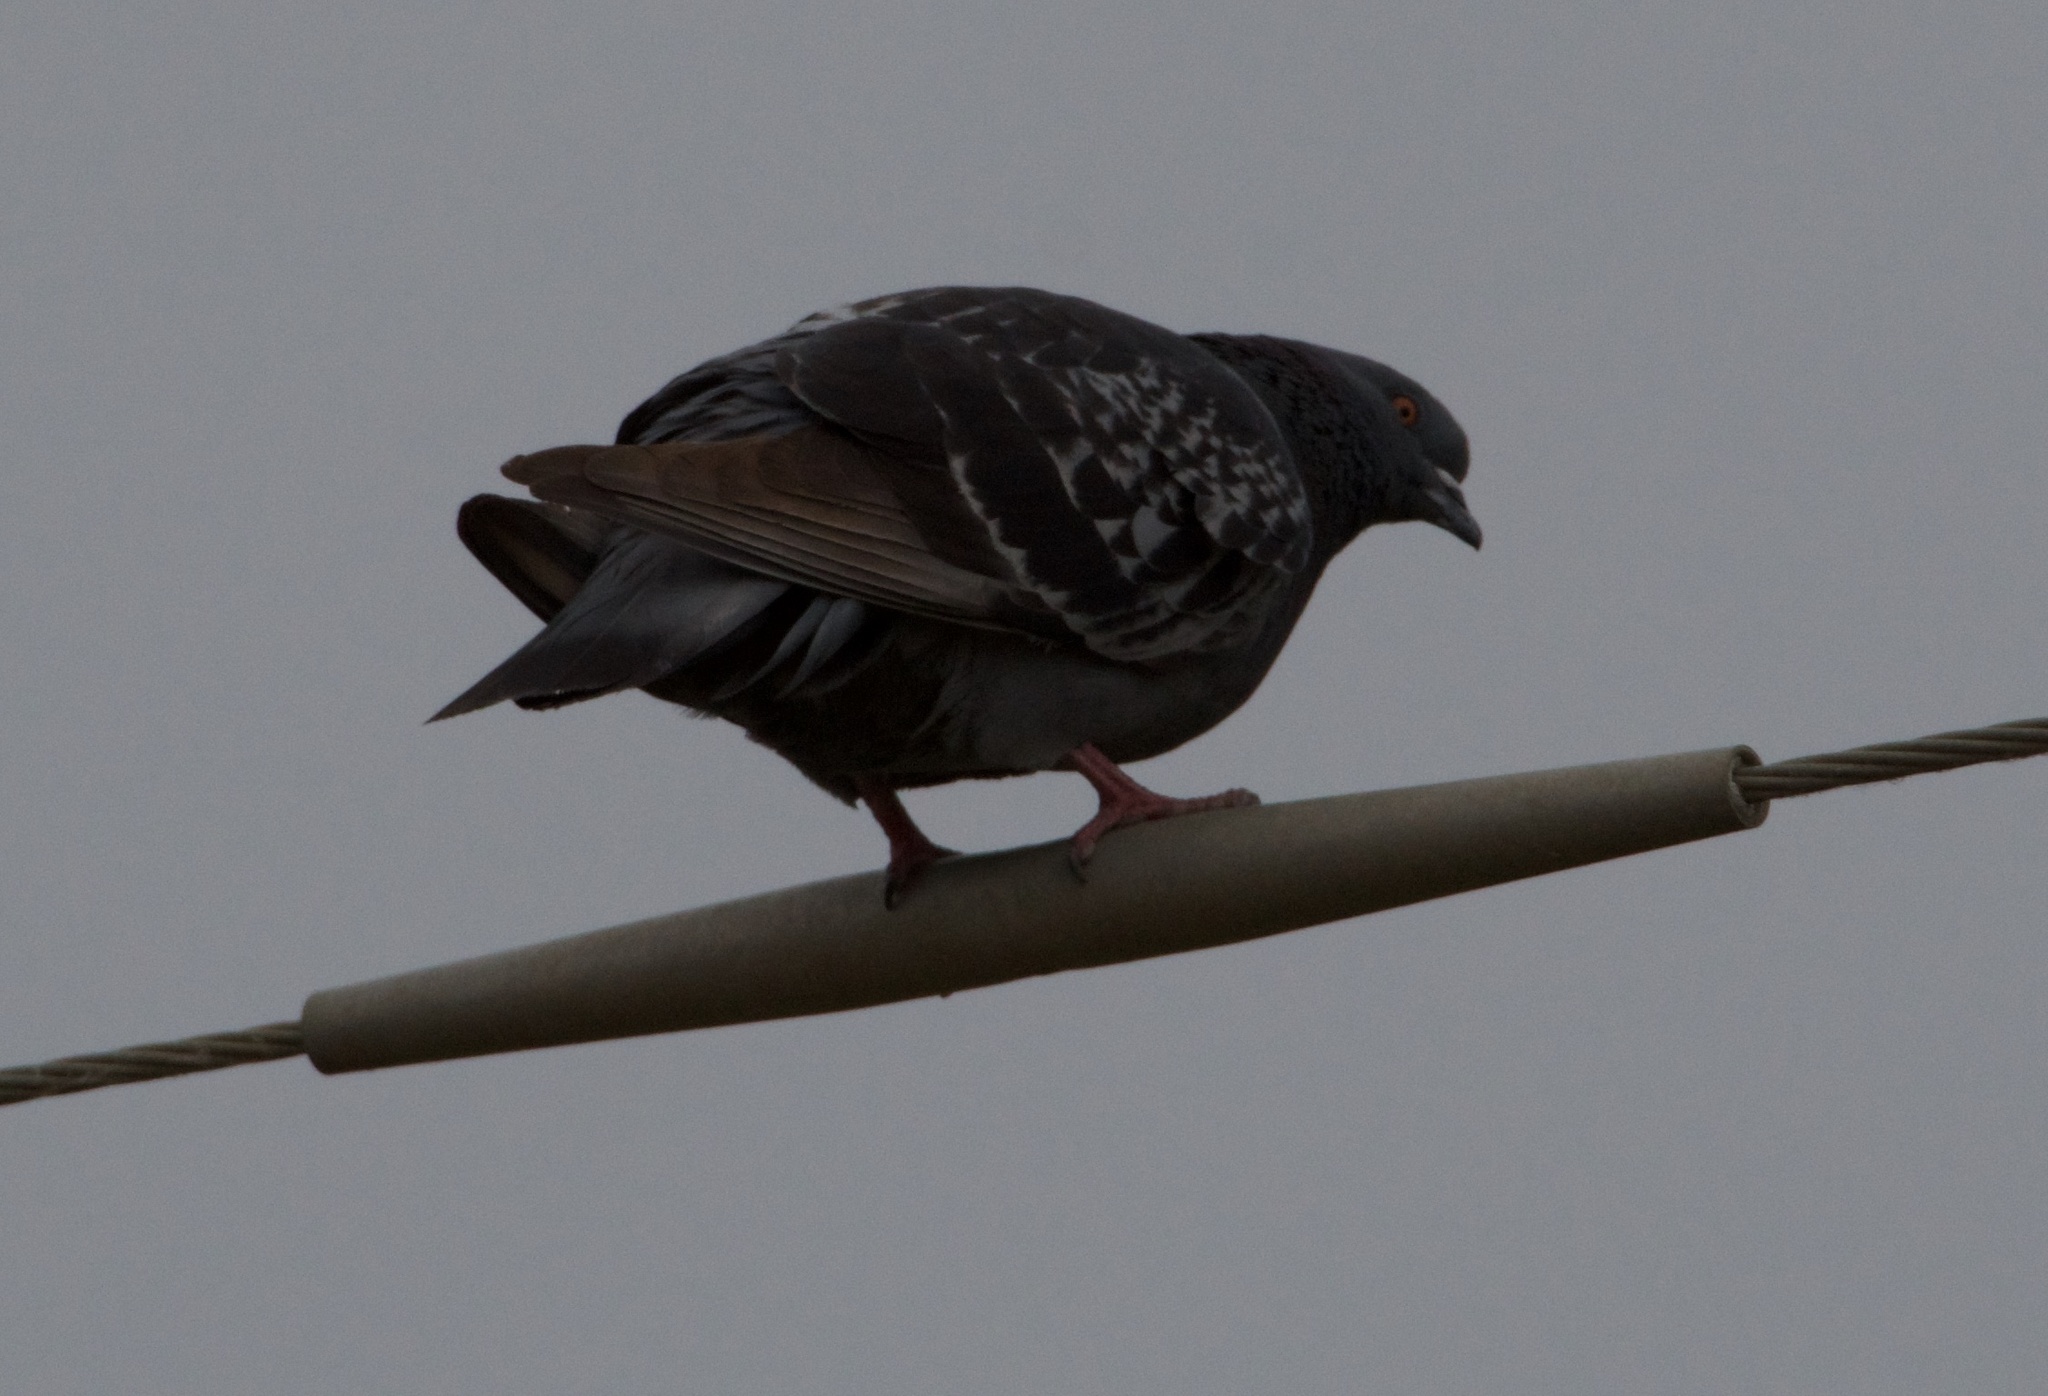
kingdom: Animalia
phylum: Chordata
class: Aves
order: Columbiformes
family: Columbidae
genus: Columba
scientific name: Columba livia
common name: Rock pigeon
